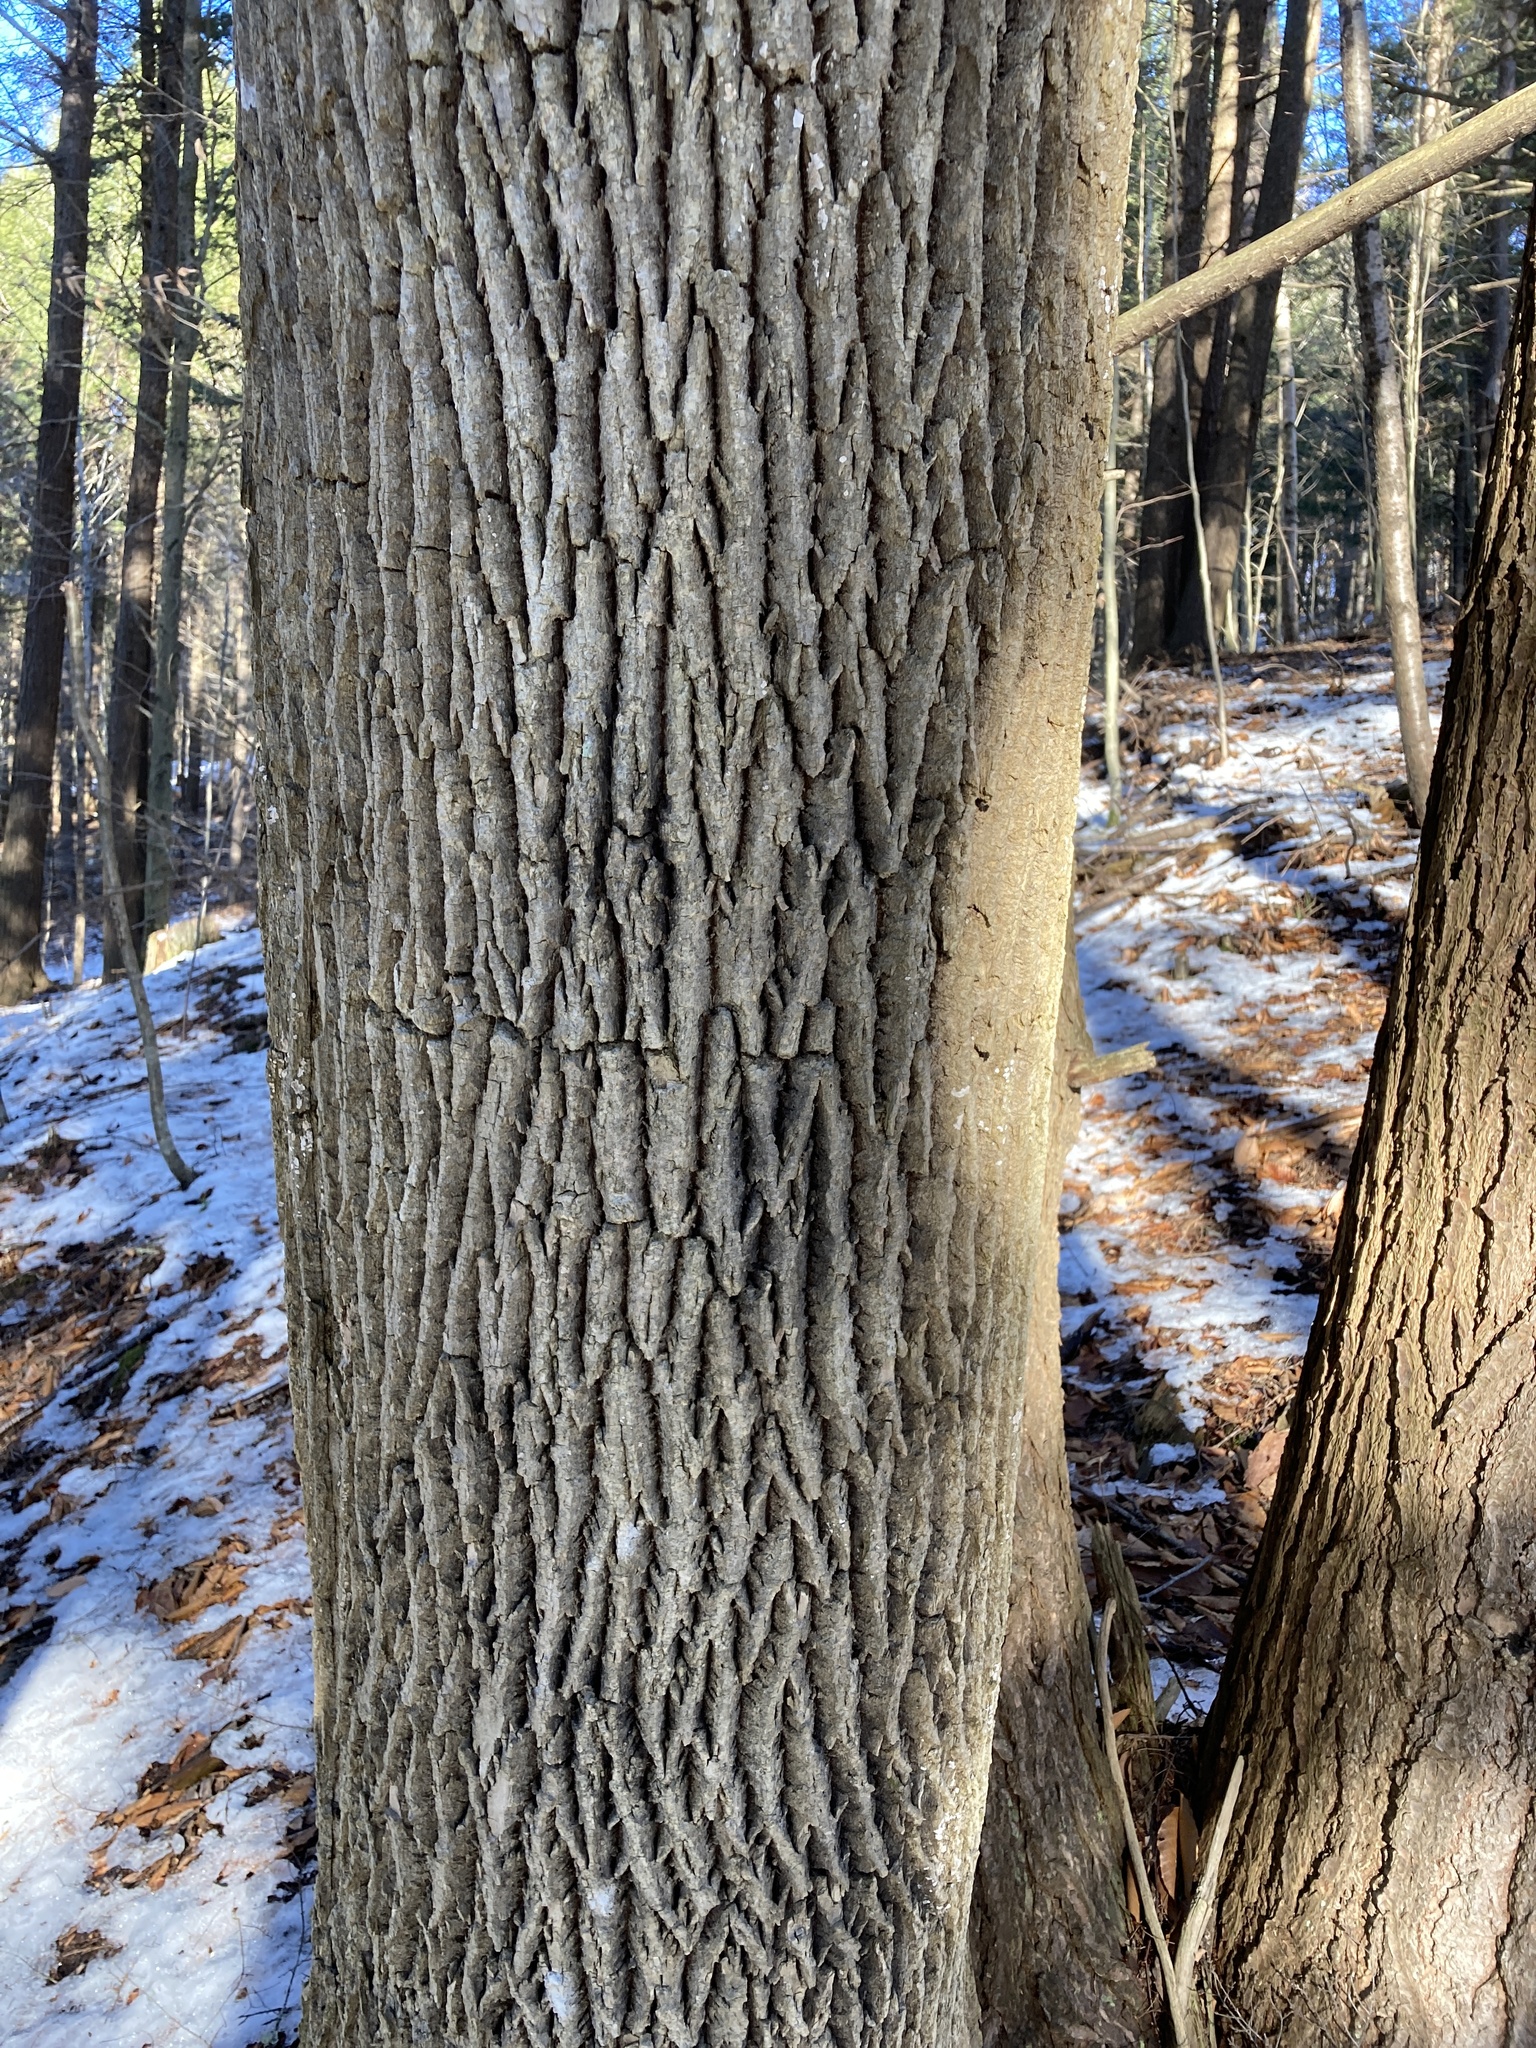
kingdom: Plantae
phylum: Tracheophyta
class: Magnoliopsida
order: Lamiales
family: Oleaceae
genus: Fraxinus
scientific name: Fraxinus americana
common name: White ash
